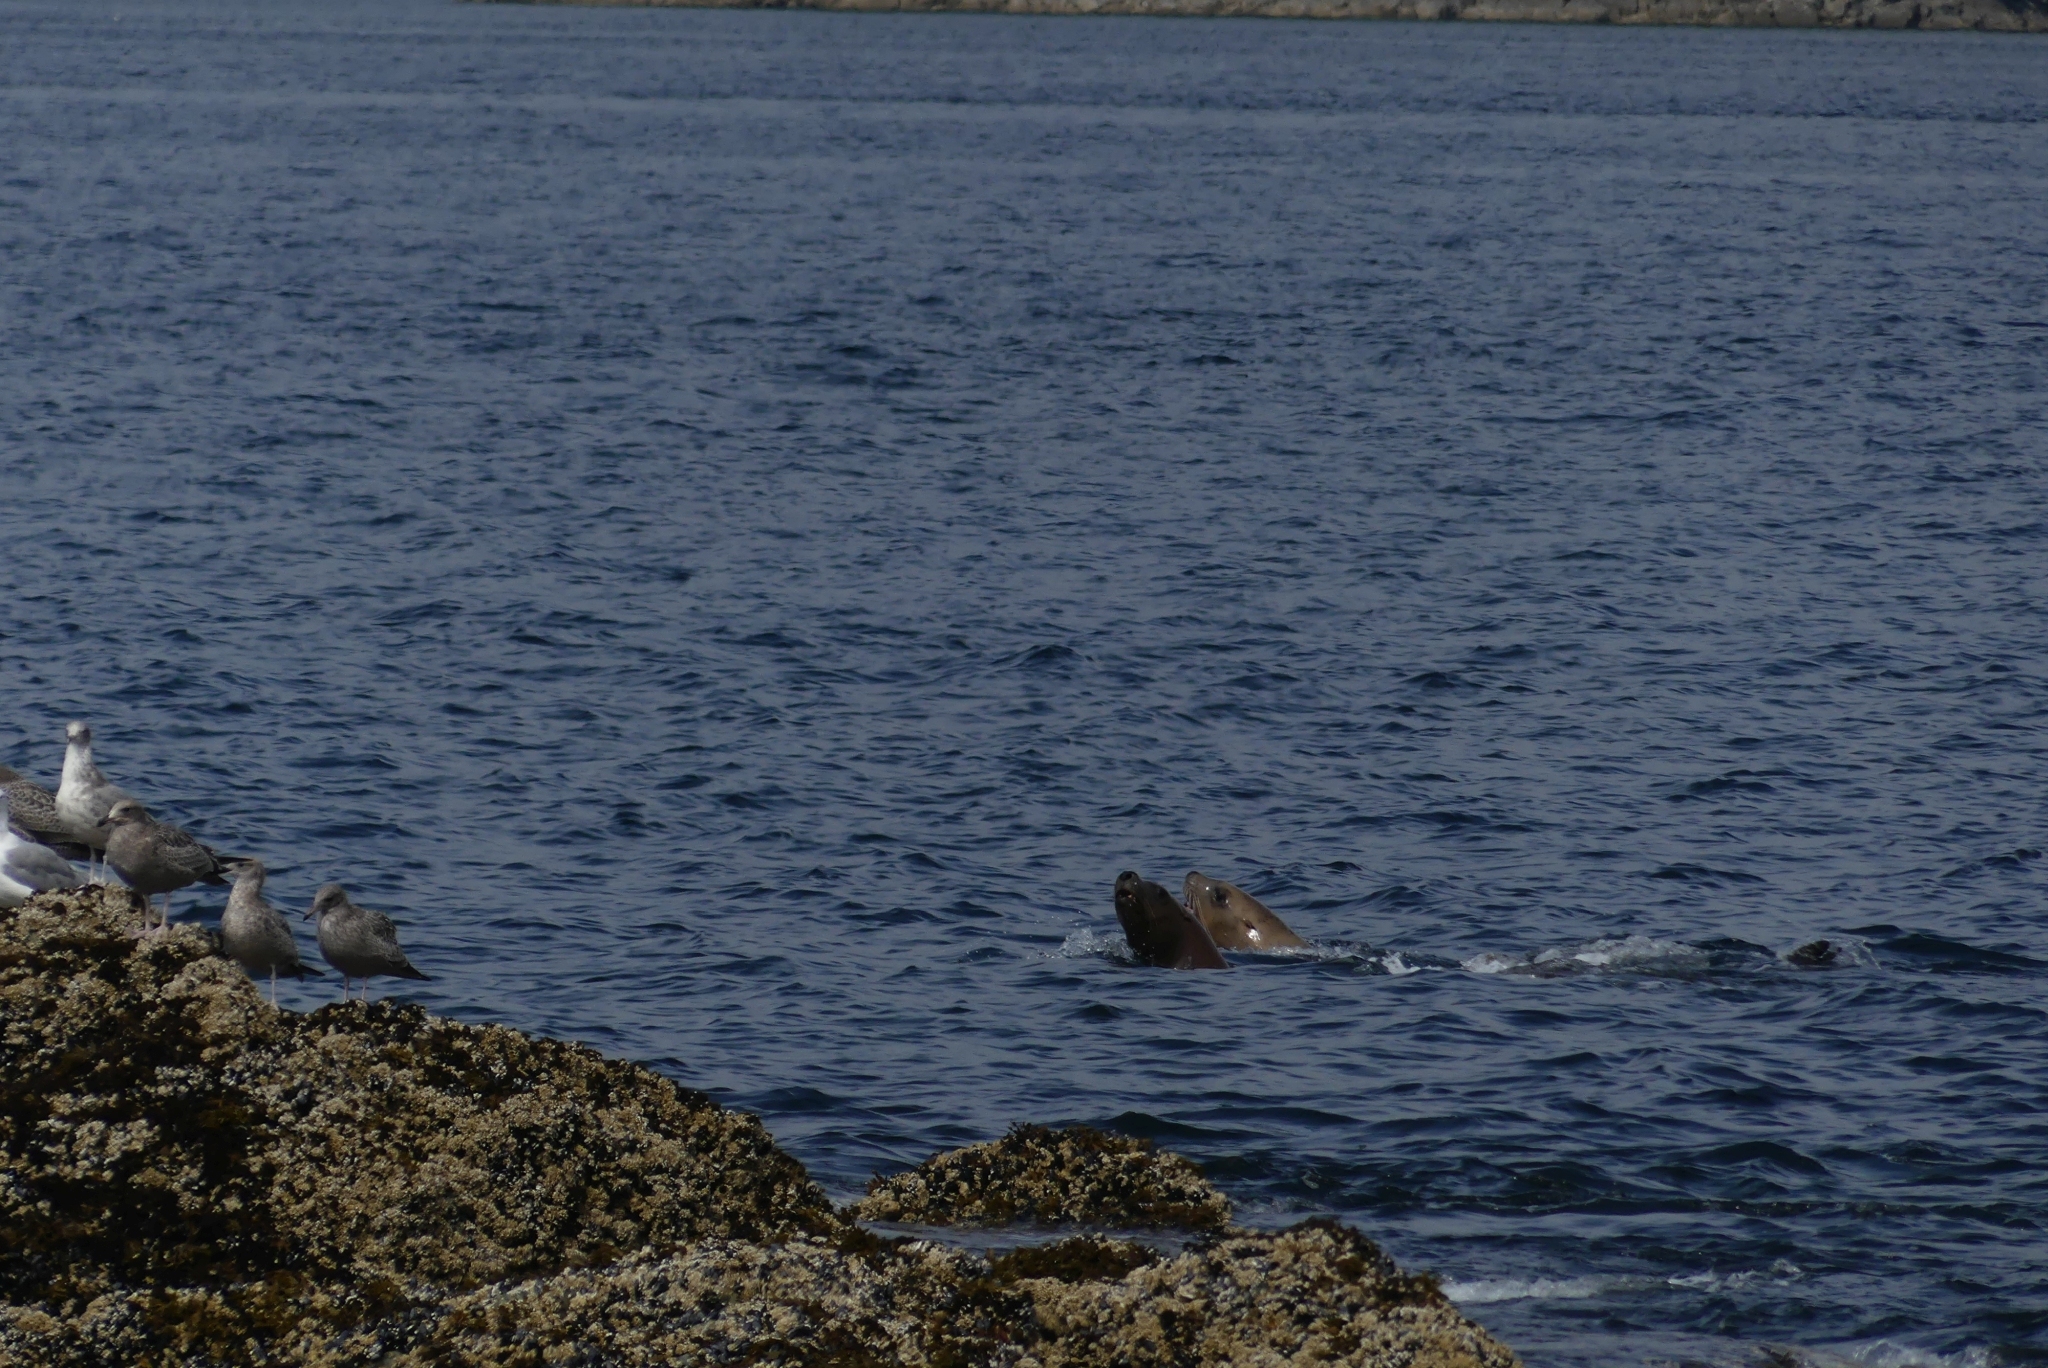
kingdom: Animalia
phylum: Chordata
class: Mammalia
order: Carnivora
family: Otariidae
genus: Eumetopias
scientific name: Eumetopias jubatus
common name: Steller sea lion
